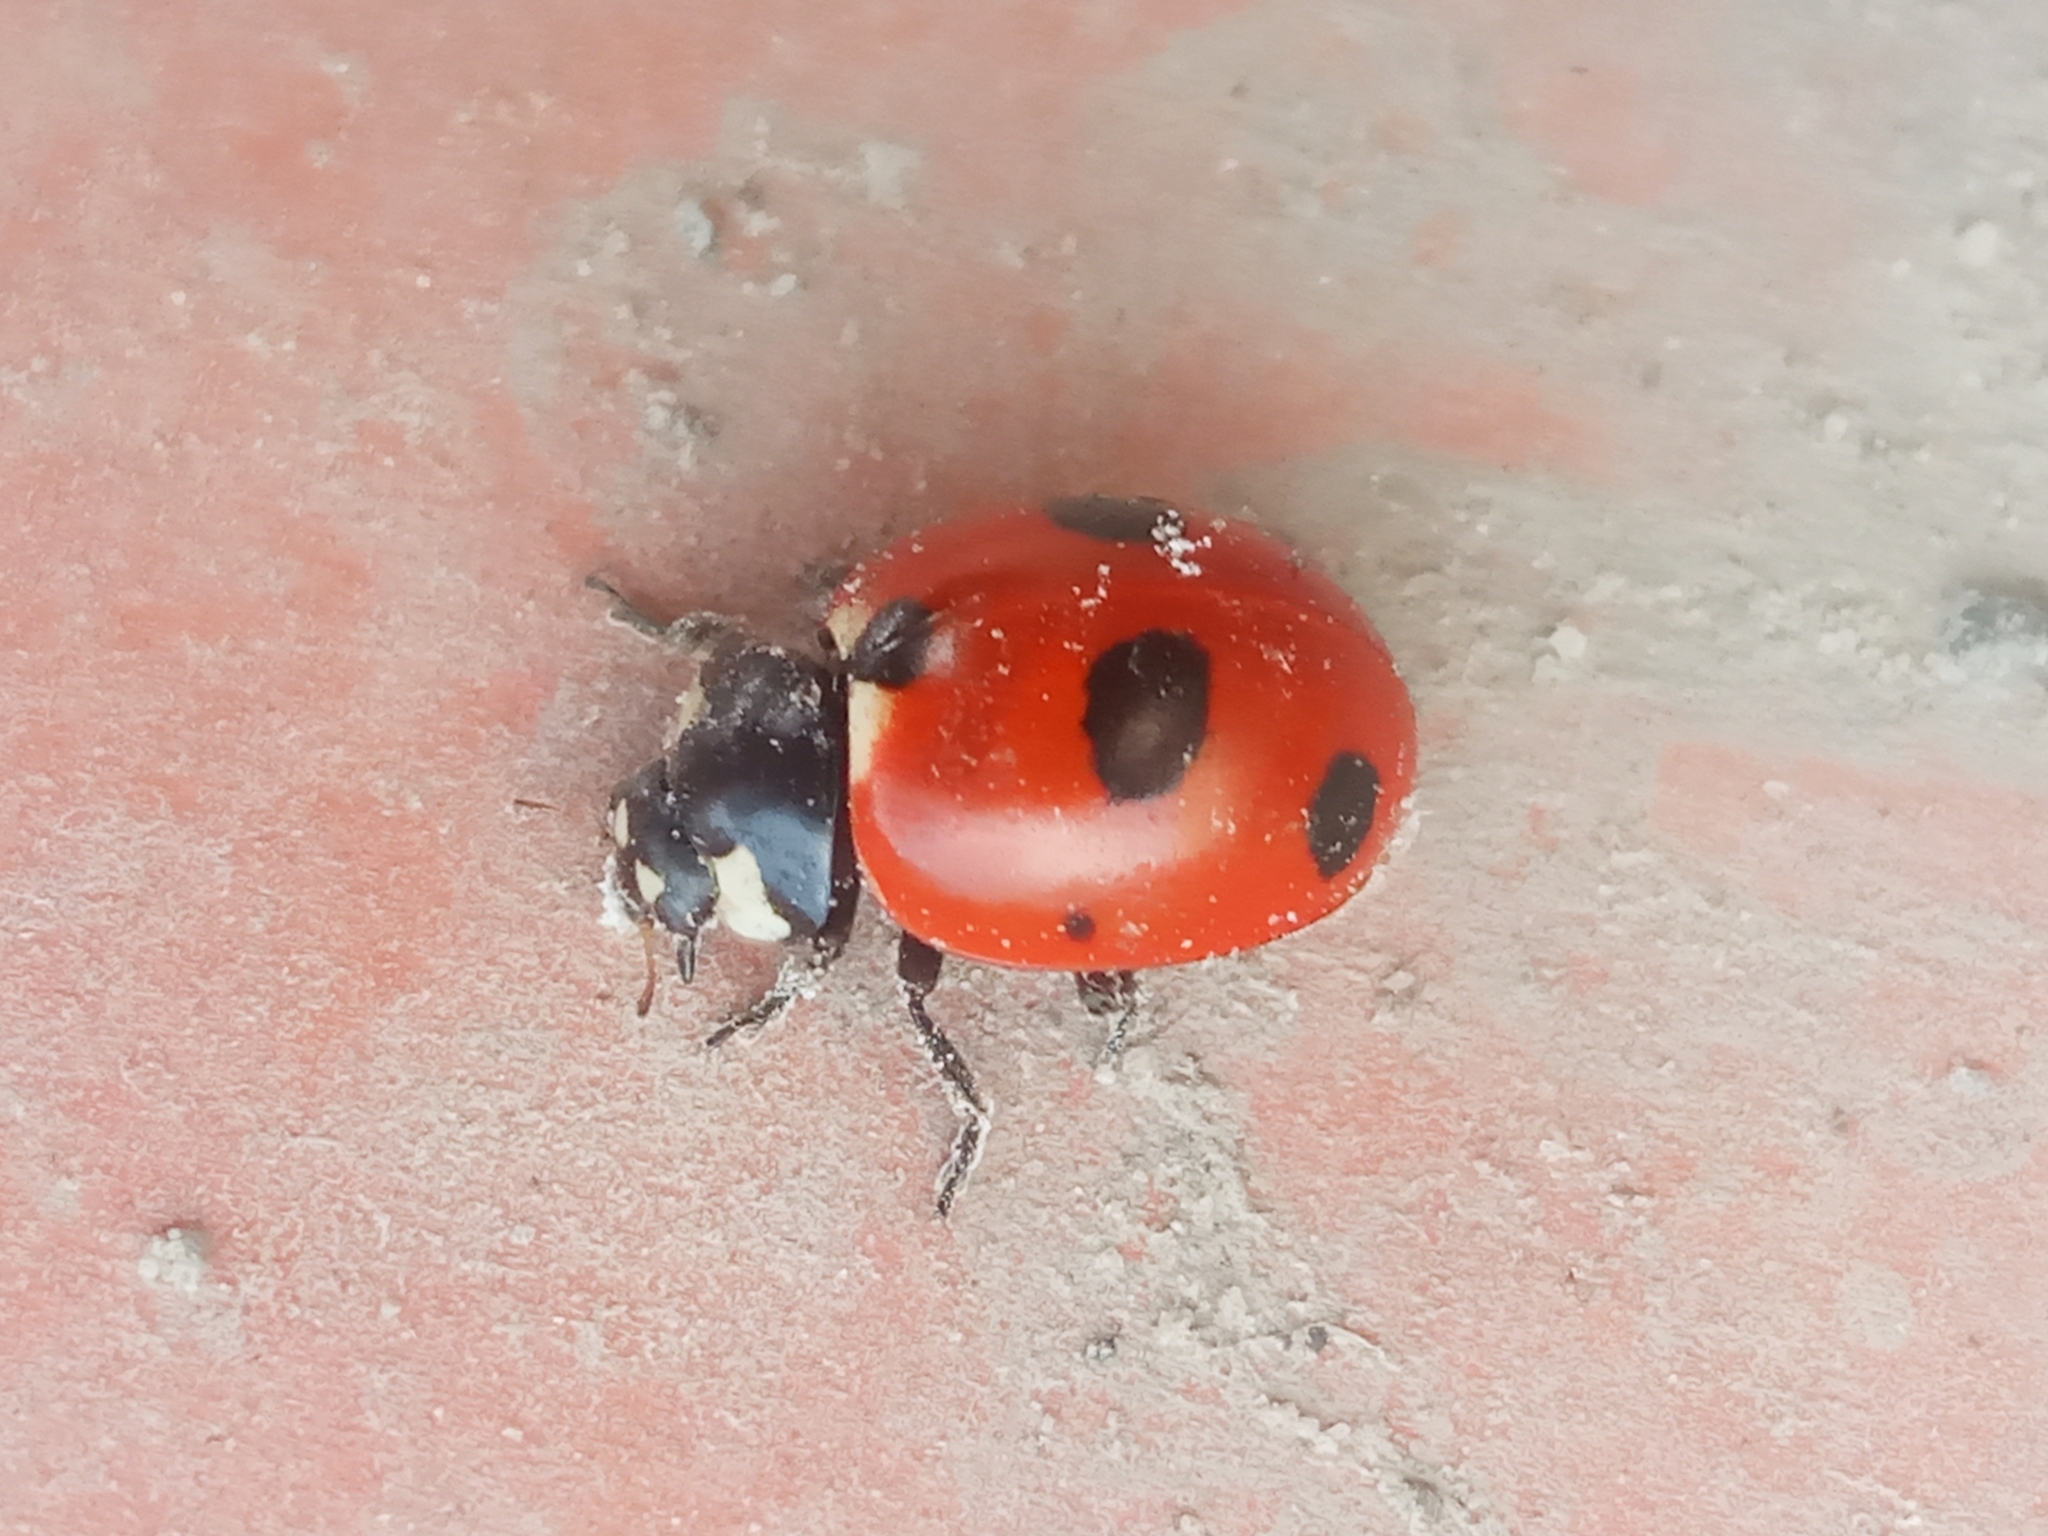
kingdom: Animalia
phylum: Arthropoda
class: Insecta
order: Coleoptera
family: Coccinellidae
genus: Coccinella
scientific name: Coccinella magnifica
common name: Scarce 7-spot ladybird
